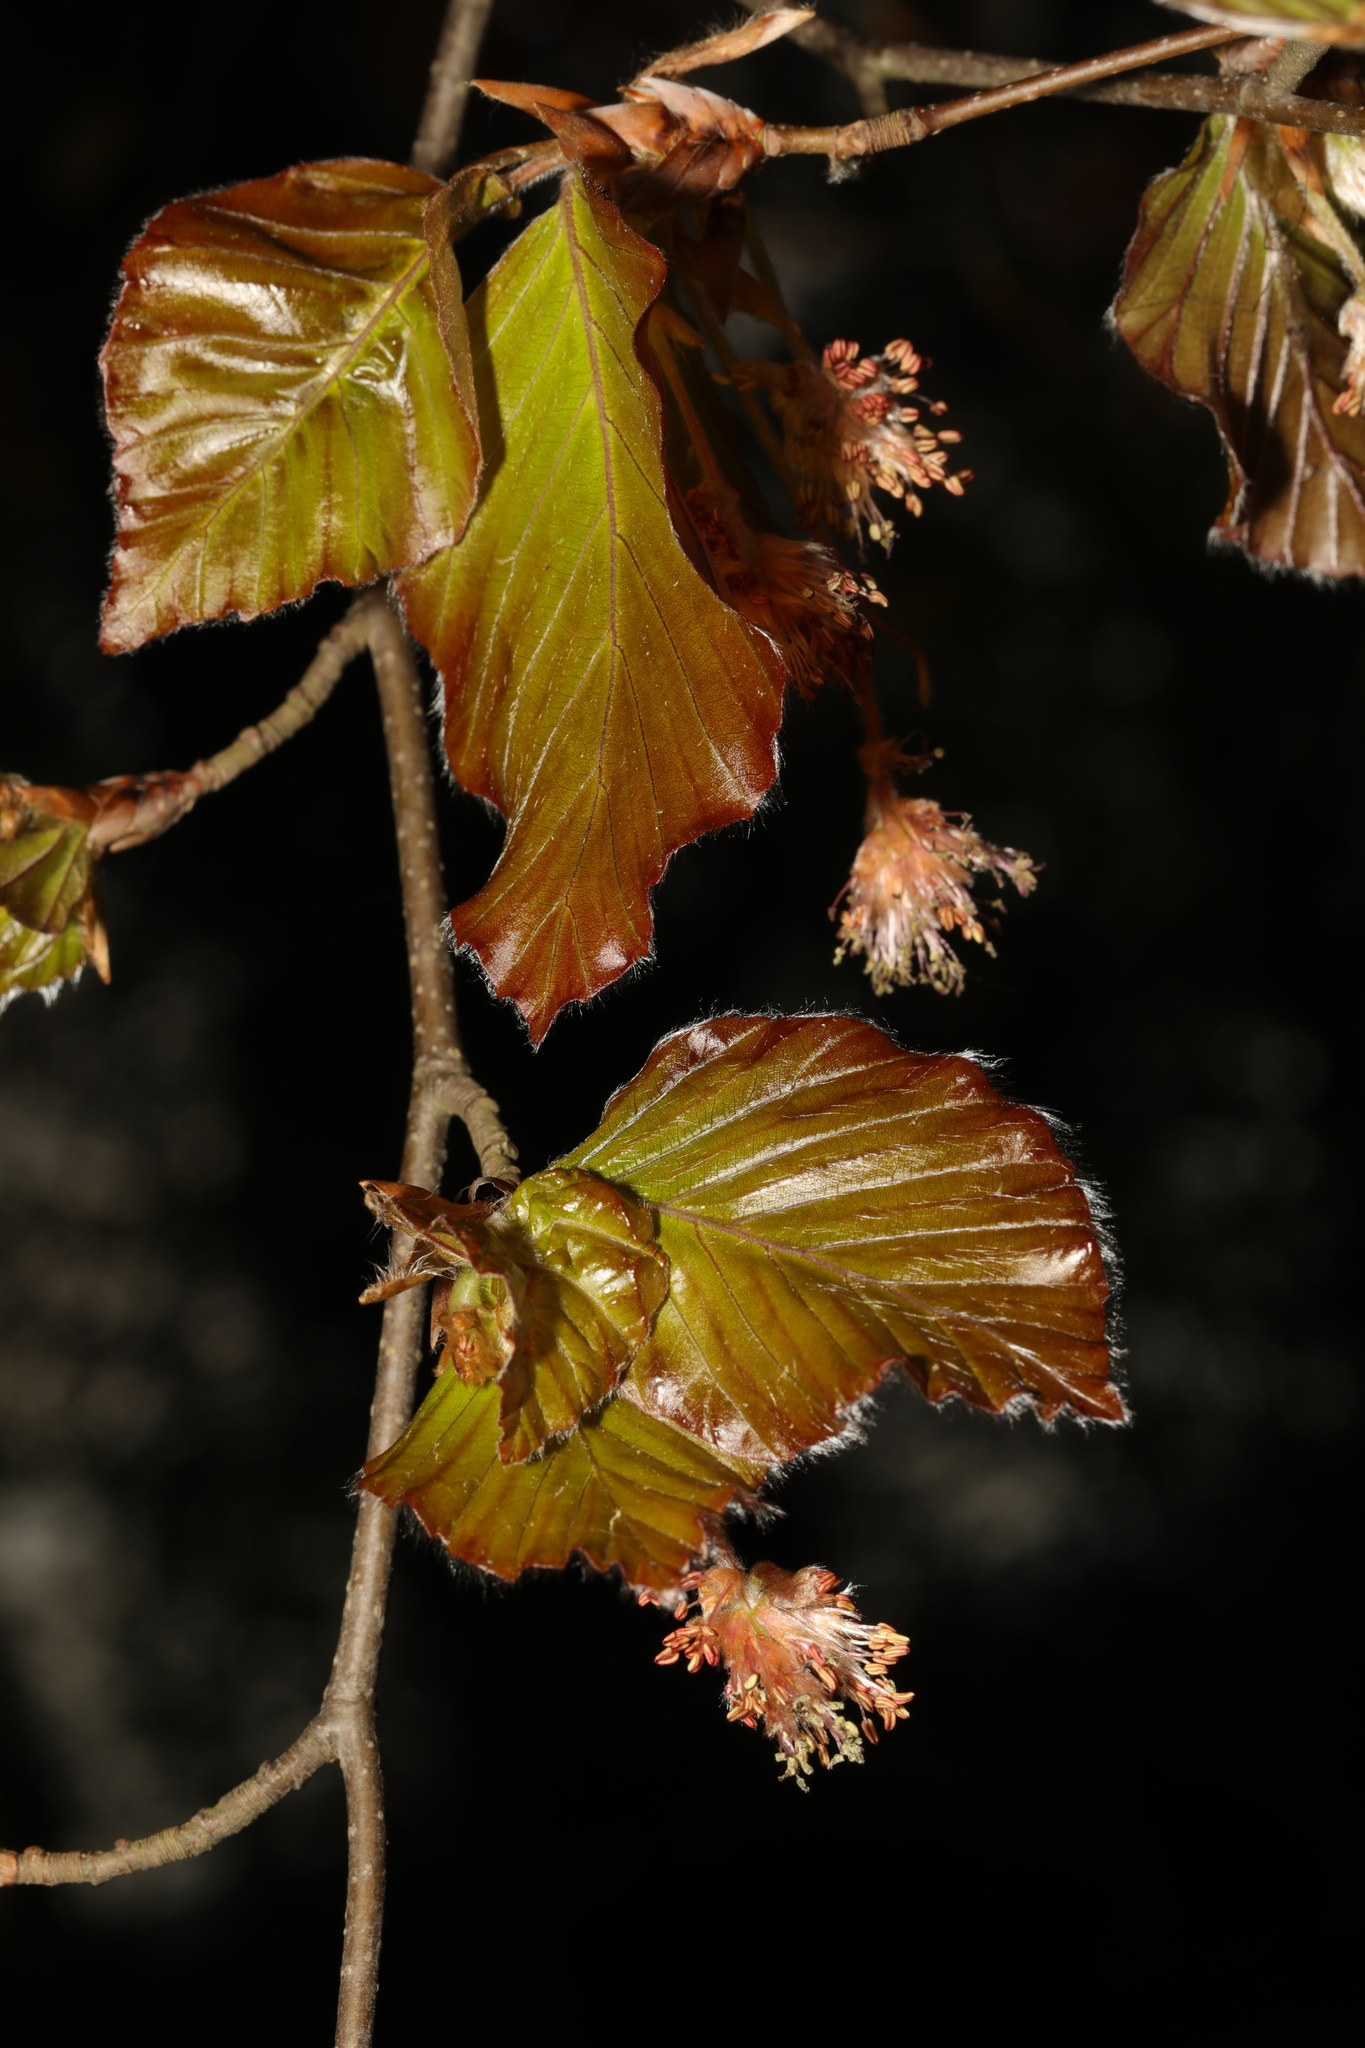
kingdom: Plantae
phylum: Tracheophyta
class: Magnoliopsida
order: Fagales
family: Fagaceae
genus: Fagus
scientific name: Fagus sylvatica
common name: Beech
